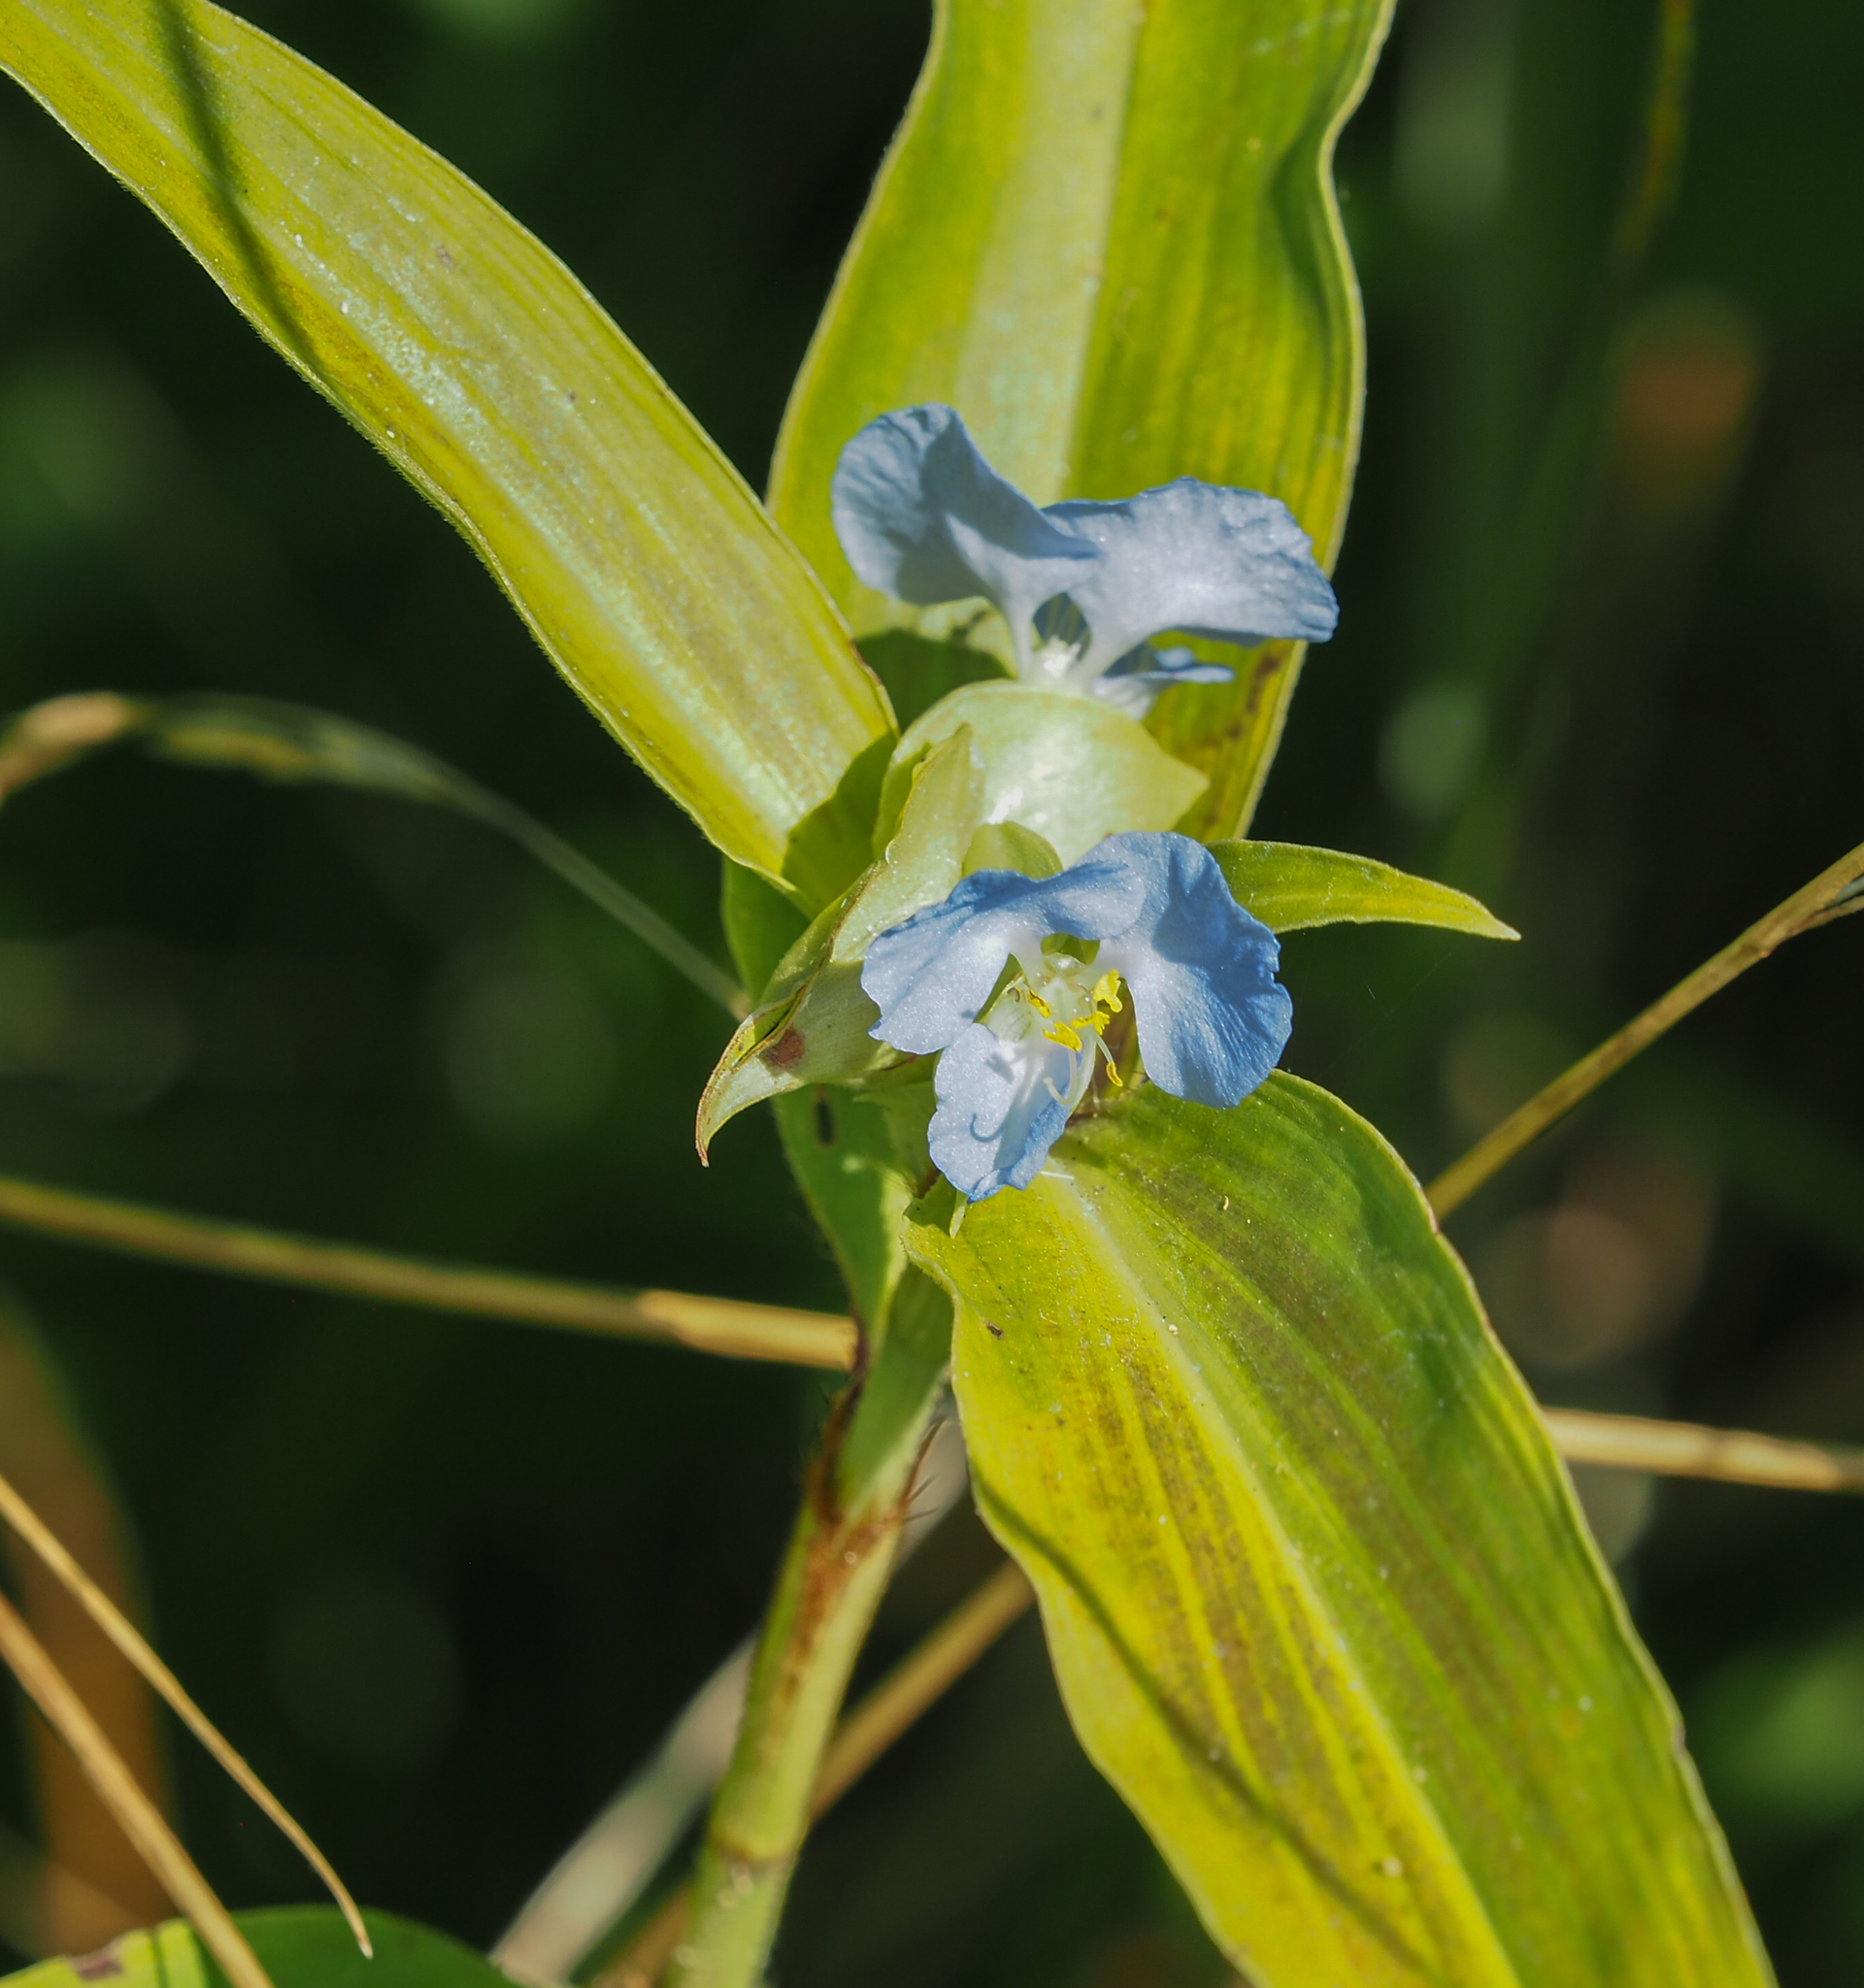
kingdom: Plantae
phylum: Tracheophyta
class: Liliopsida
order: Commelinales
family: Commelinaceae
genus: Commelina
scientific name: Commelina virginica
